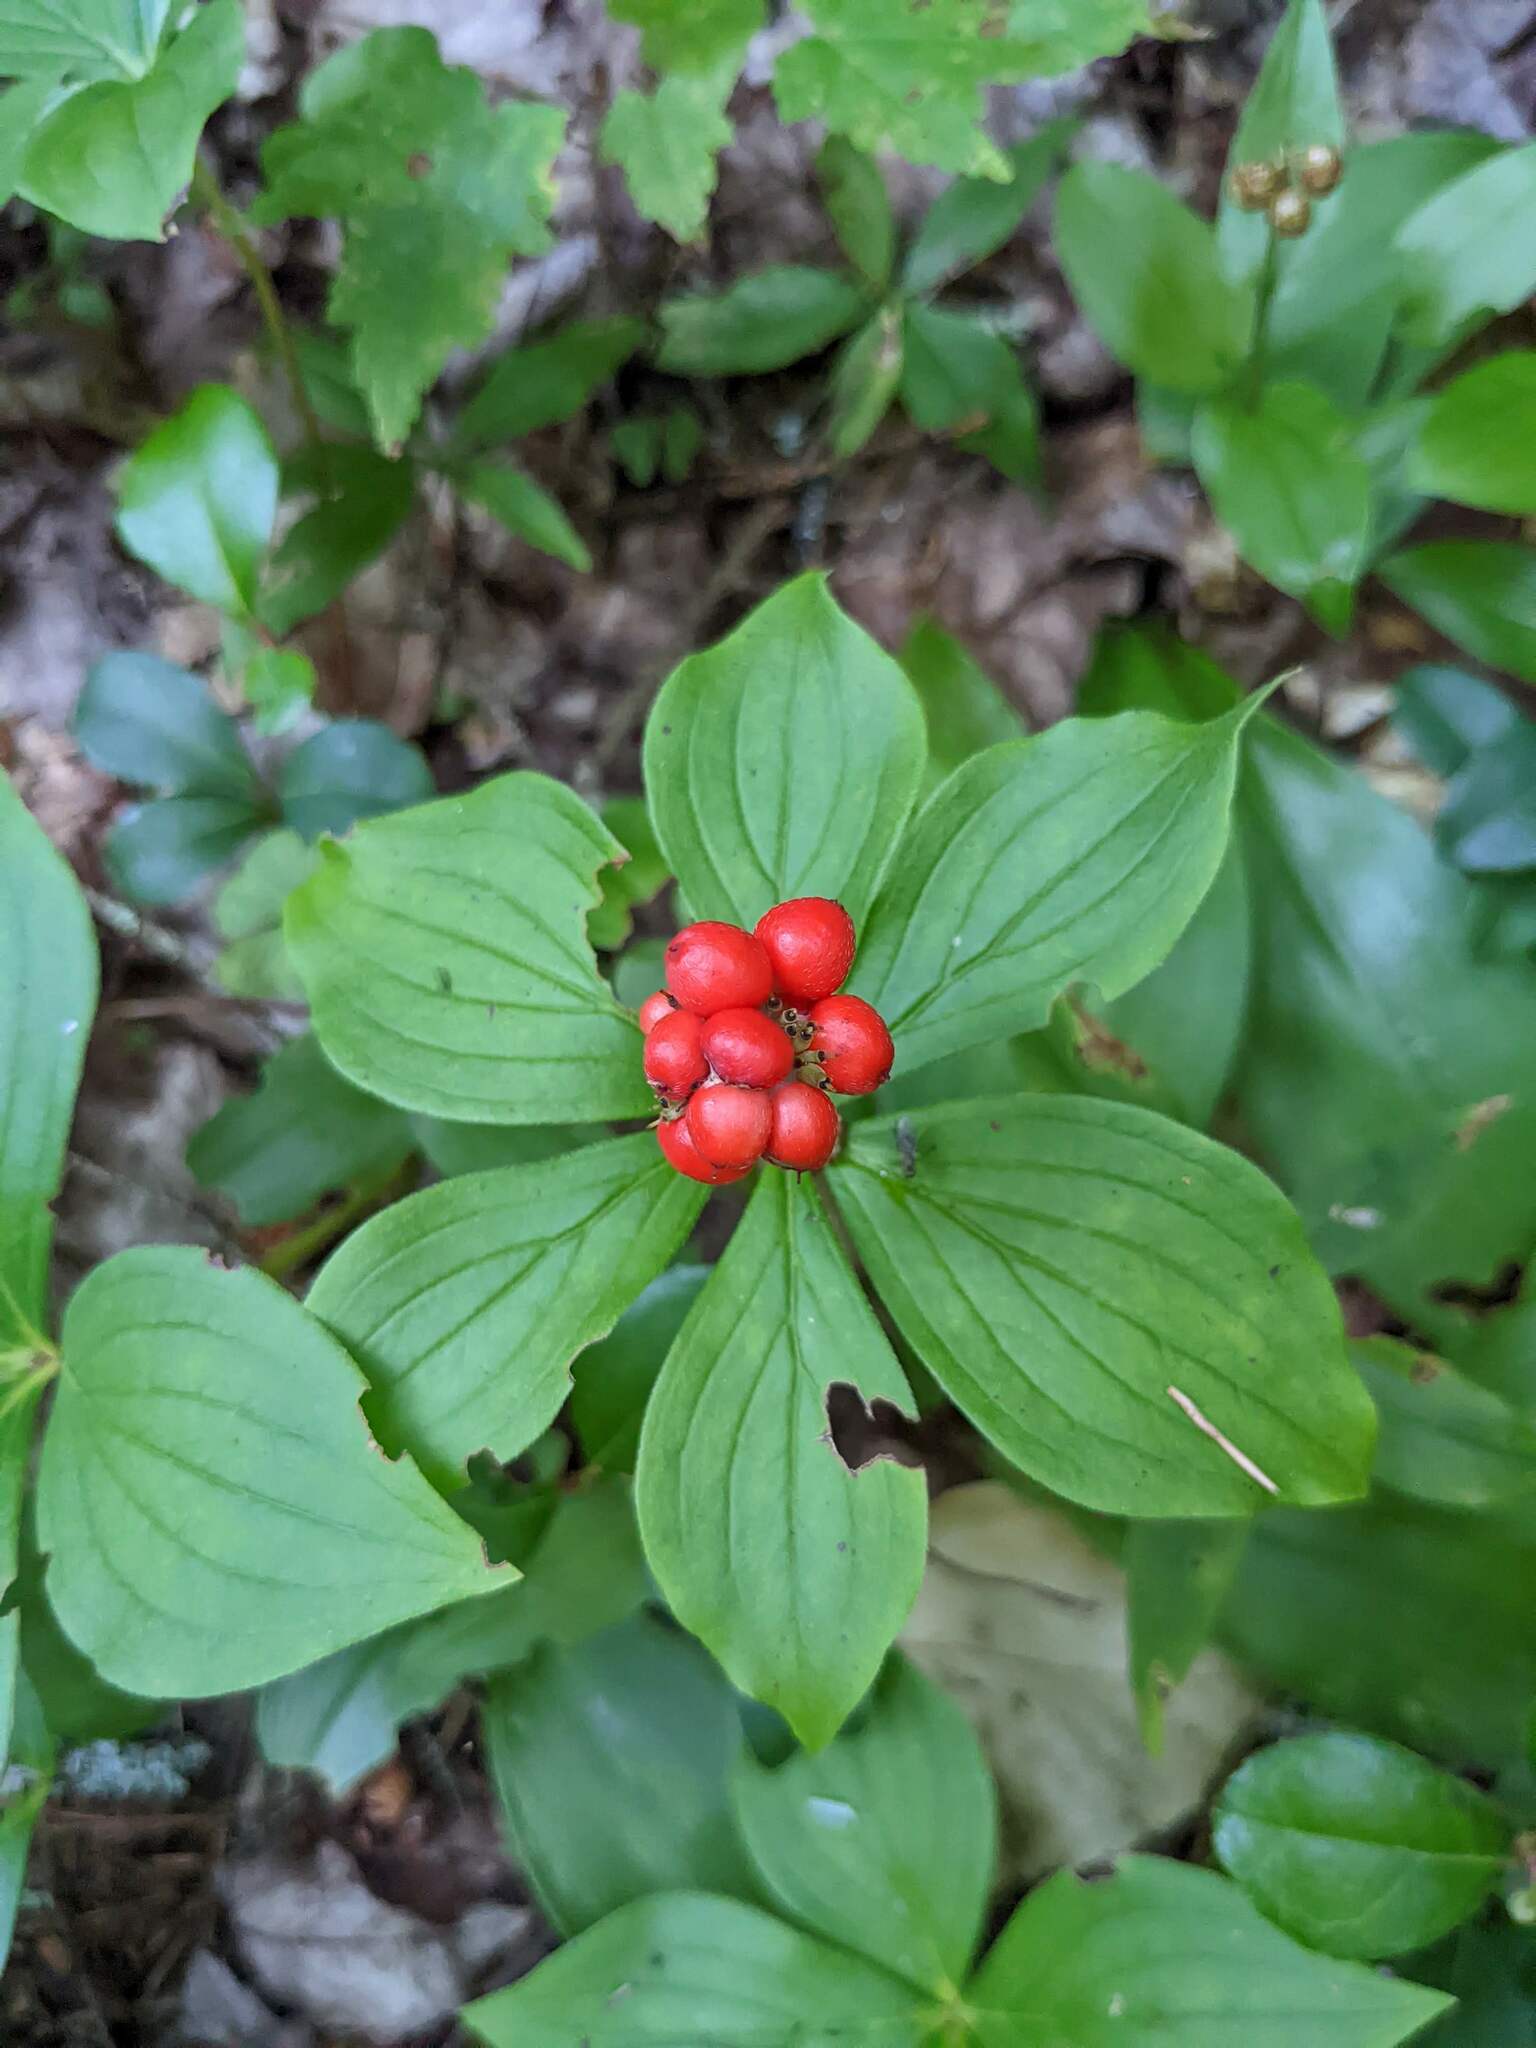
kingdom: Plantae
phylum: Tracheophyta
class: Magnoliopsida
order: Cornales
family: Cornaceae
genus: Cornus
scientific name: Cornus canadensis
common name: Creeping dogwood
